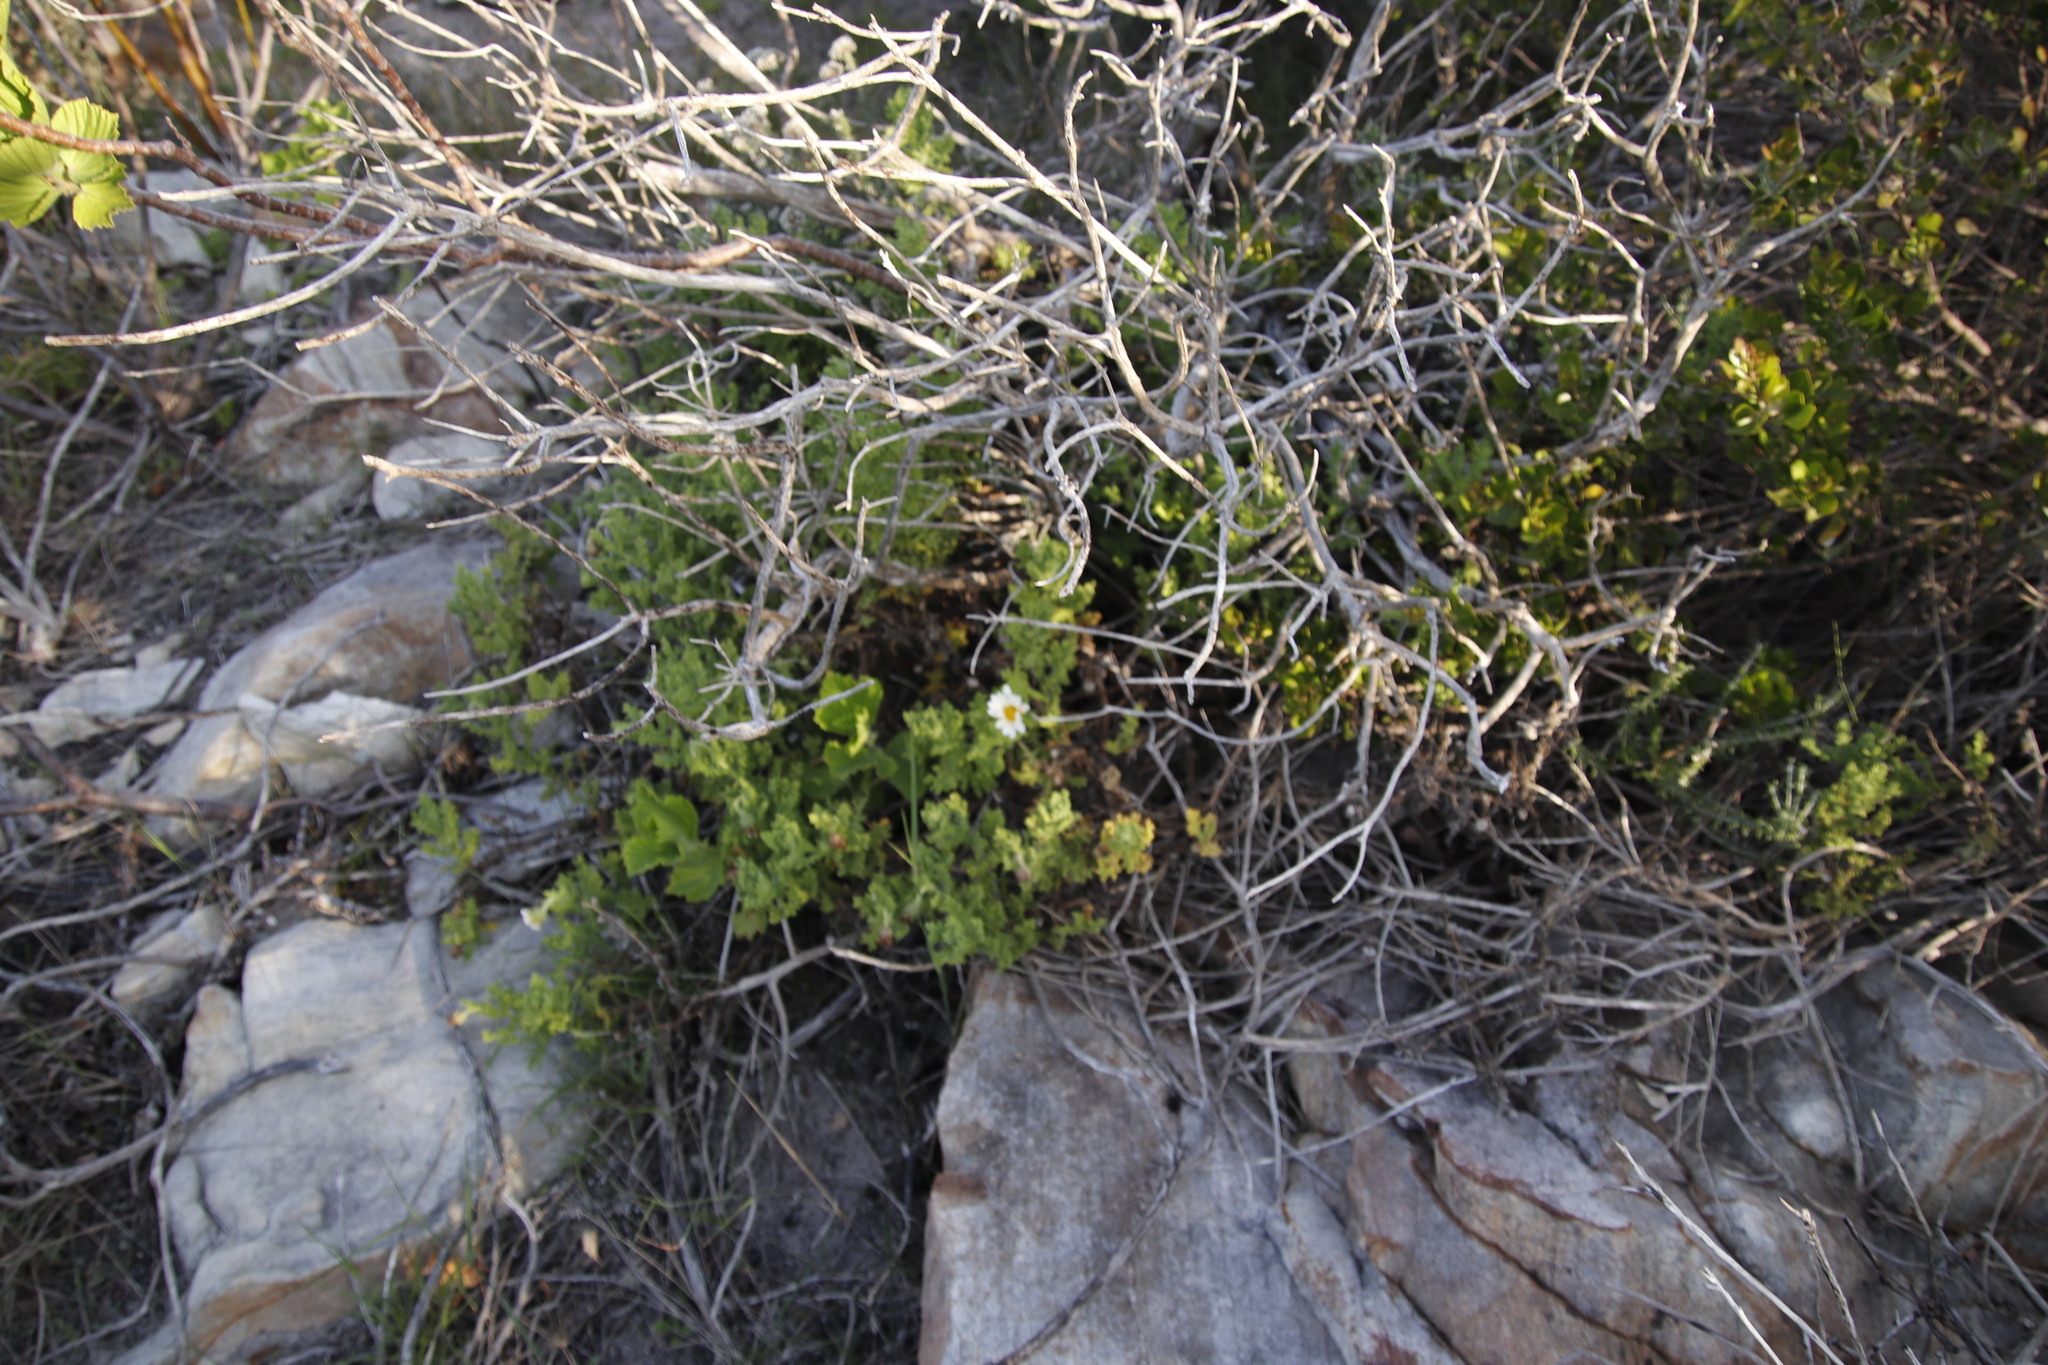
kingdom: Plantae
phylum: Tracheophyta
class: Magnoliopsida
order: Asterales
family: Asteraceae
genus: Arctotis
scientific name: Arctotis aspera
